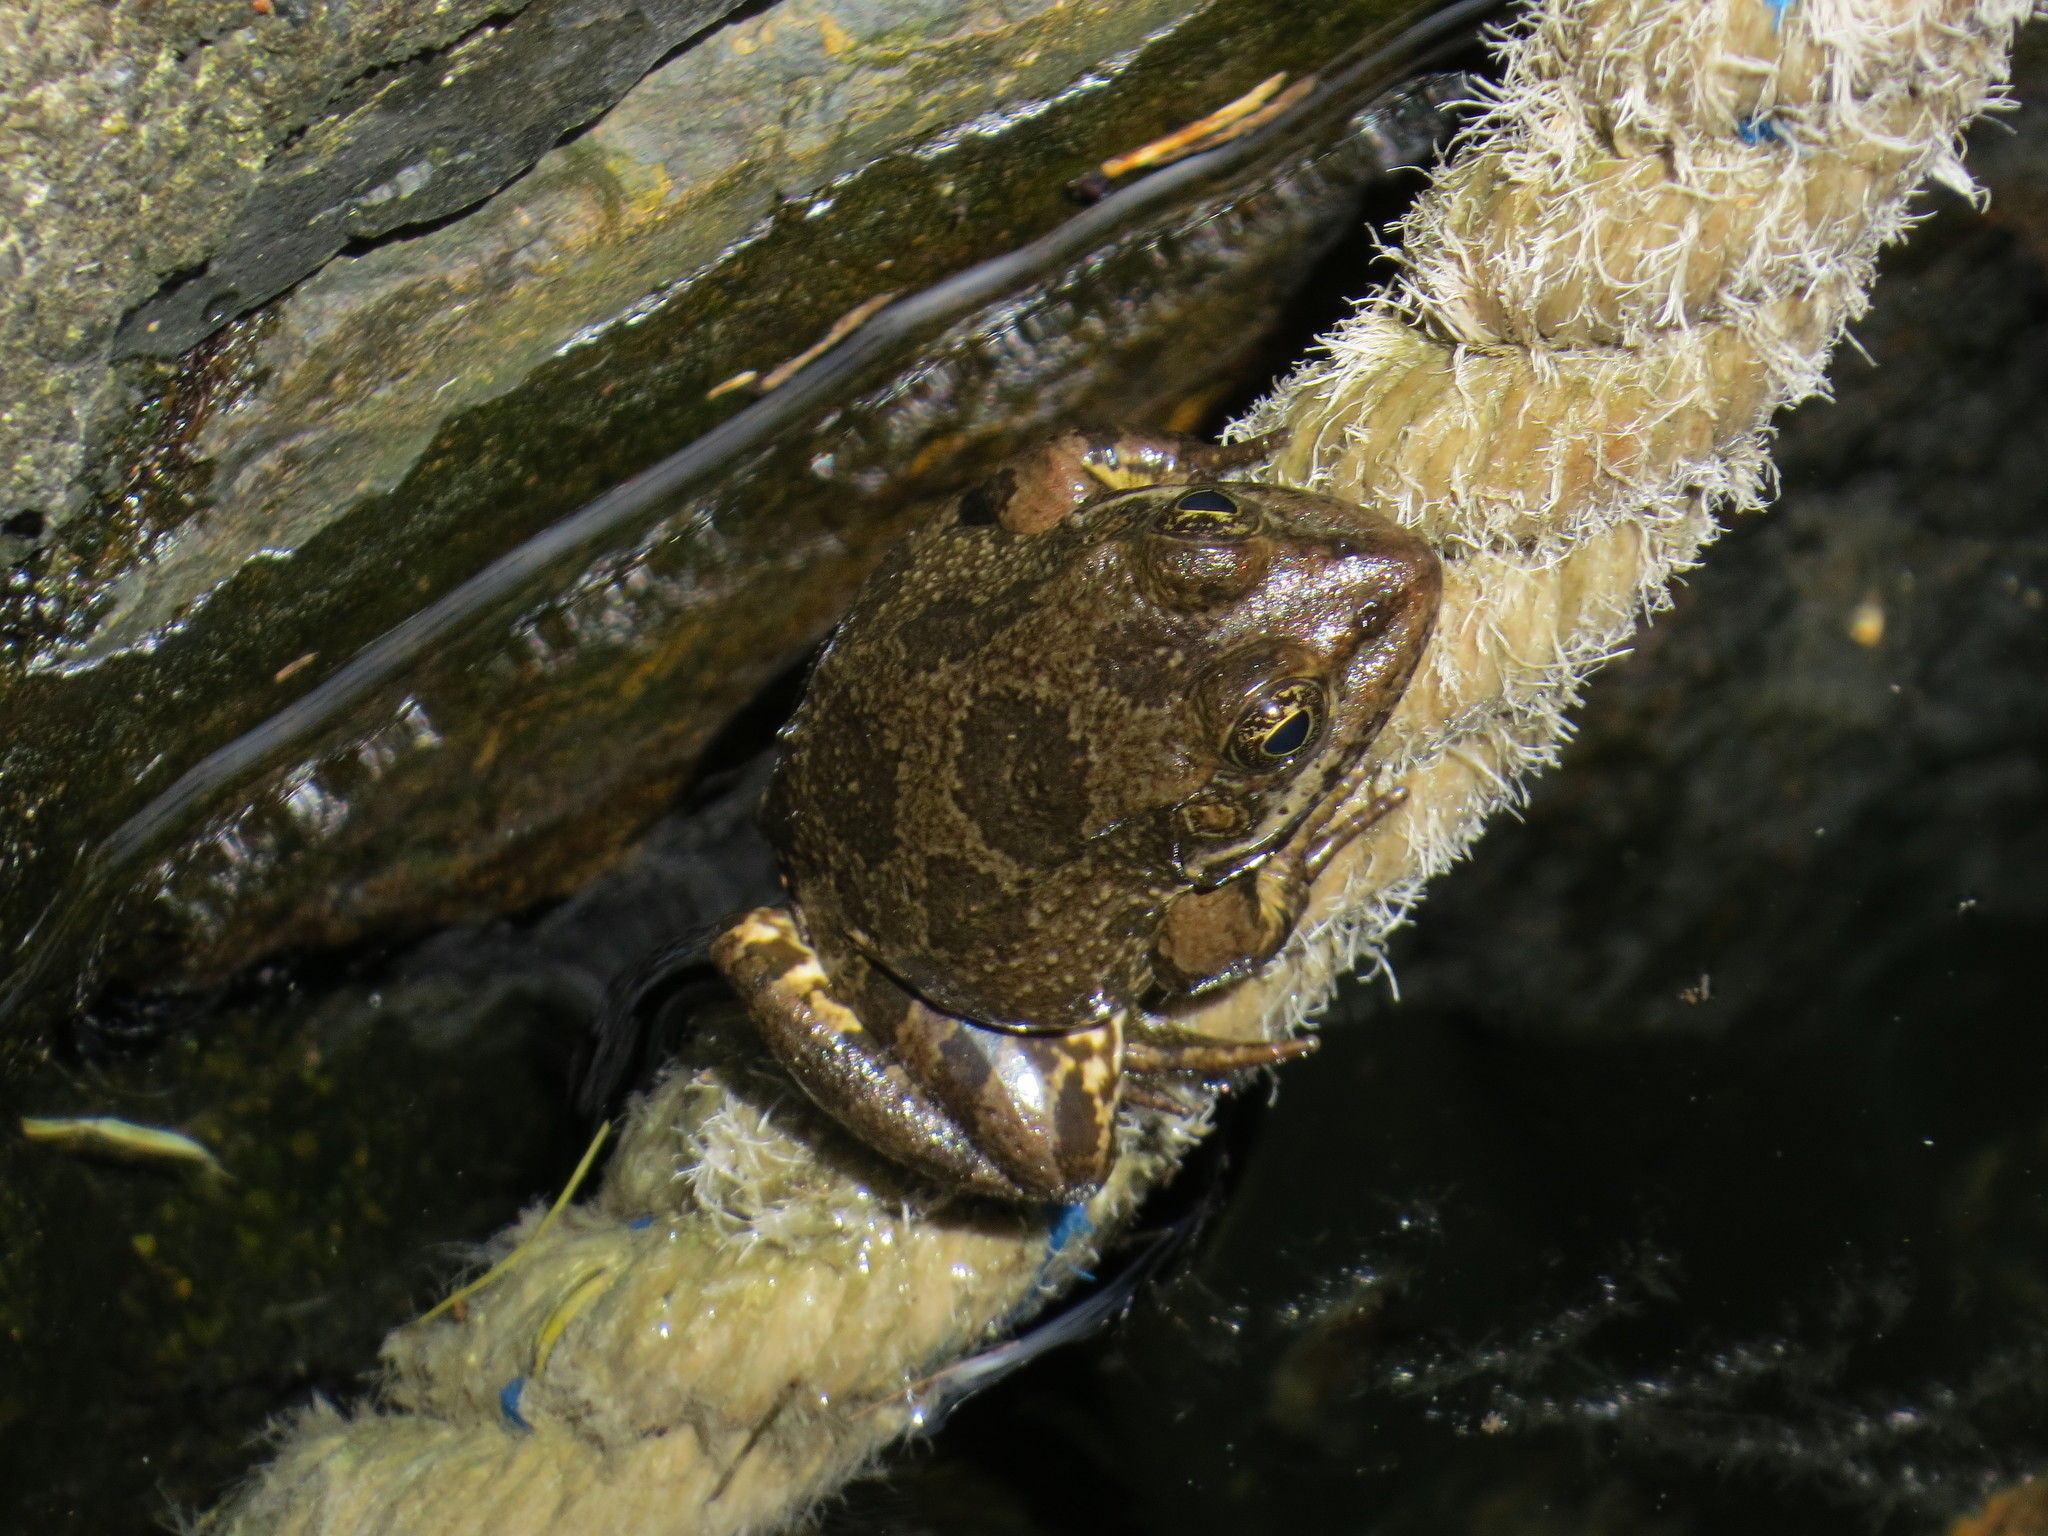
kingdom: Animalia
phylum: Chordata
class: Amphibia
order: Anura
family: Ranidae
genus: Pelophylax
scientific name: Pelophylax ridibundus
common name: Marsh frog
